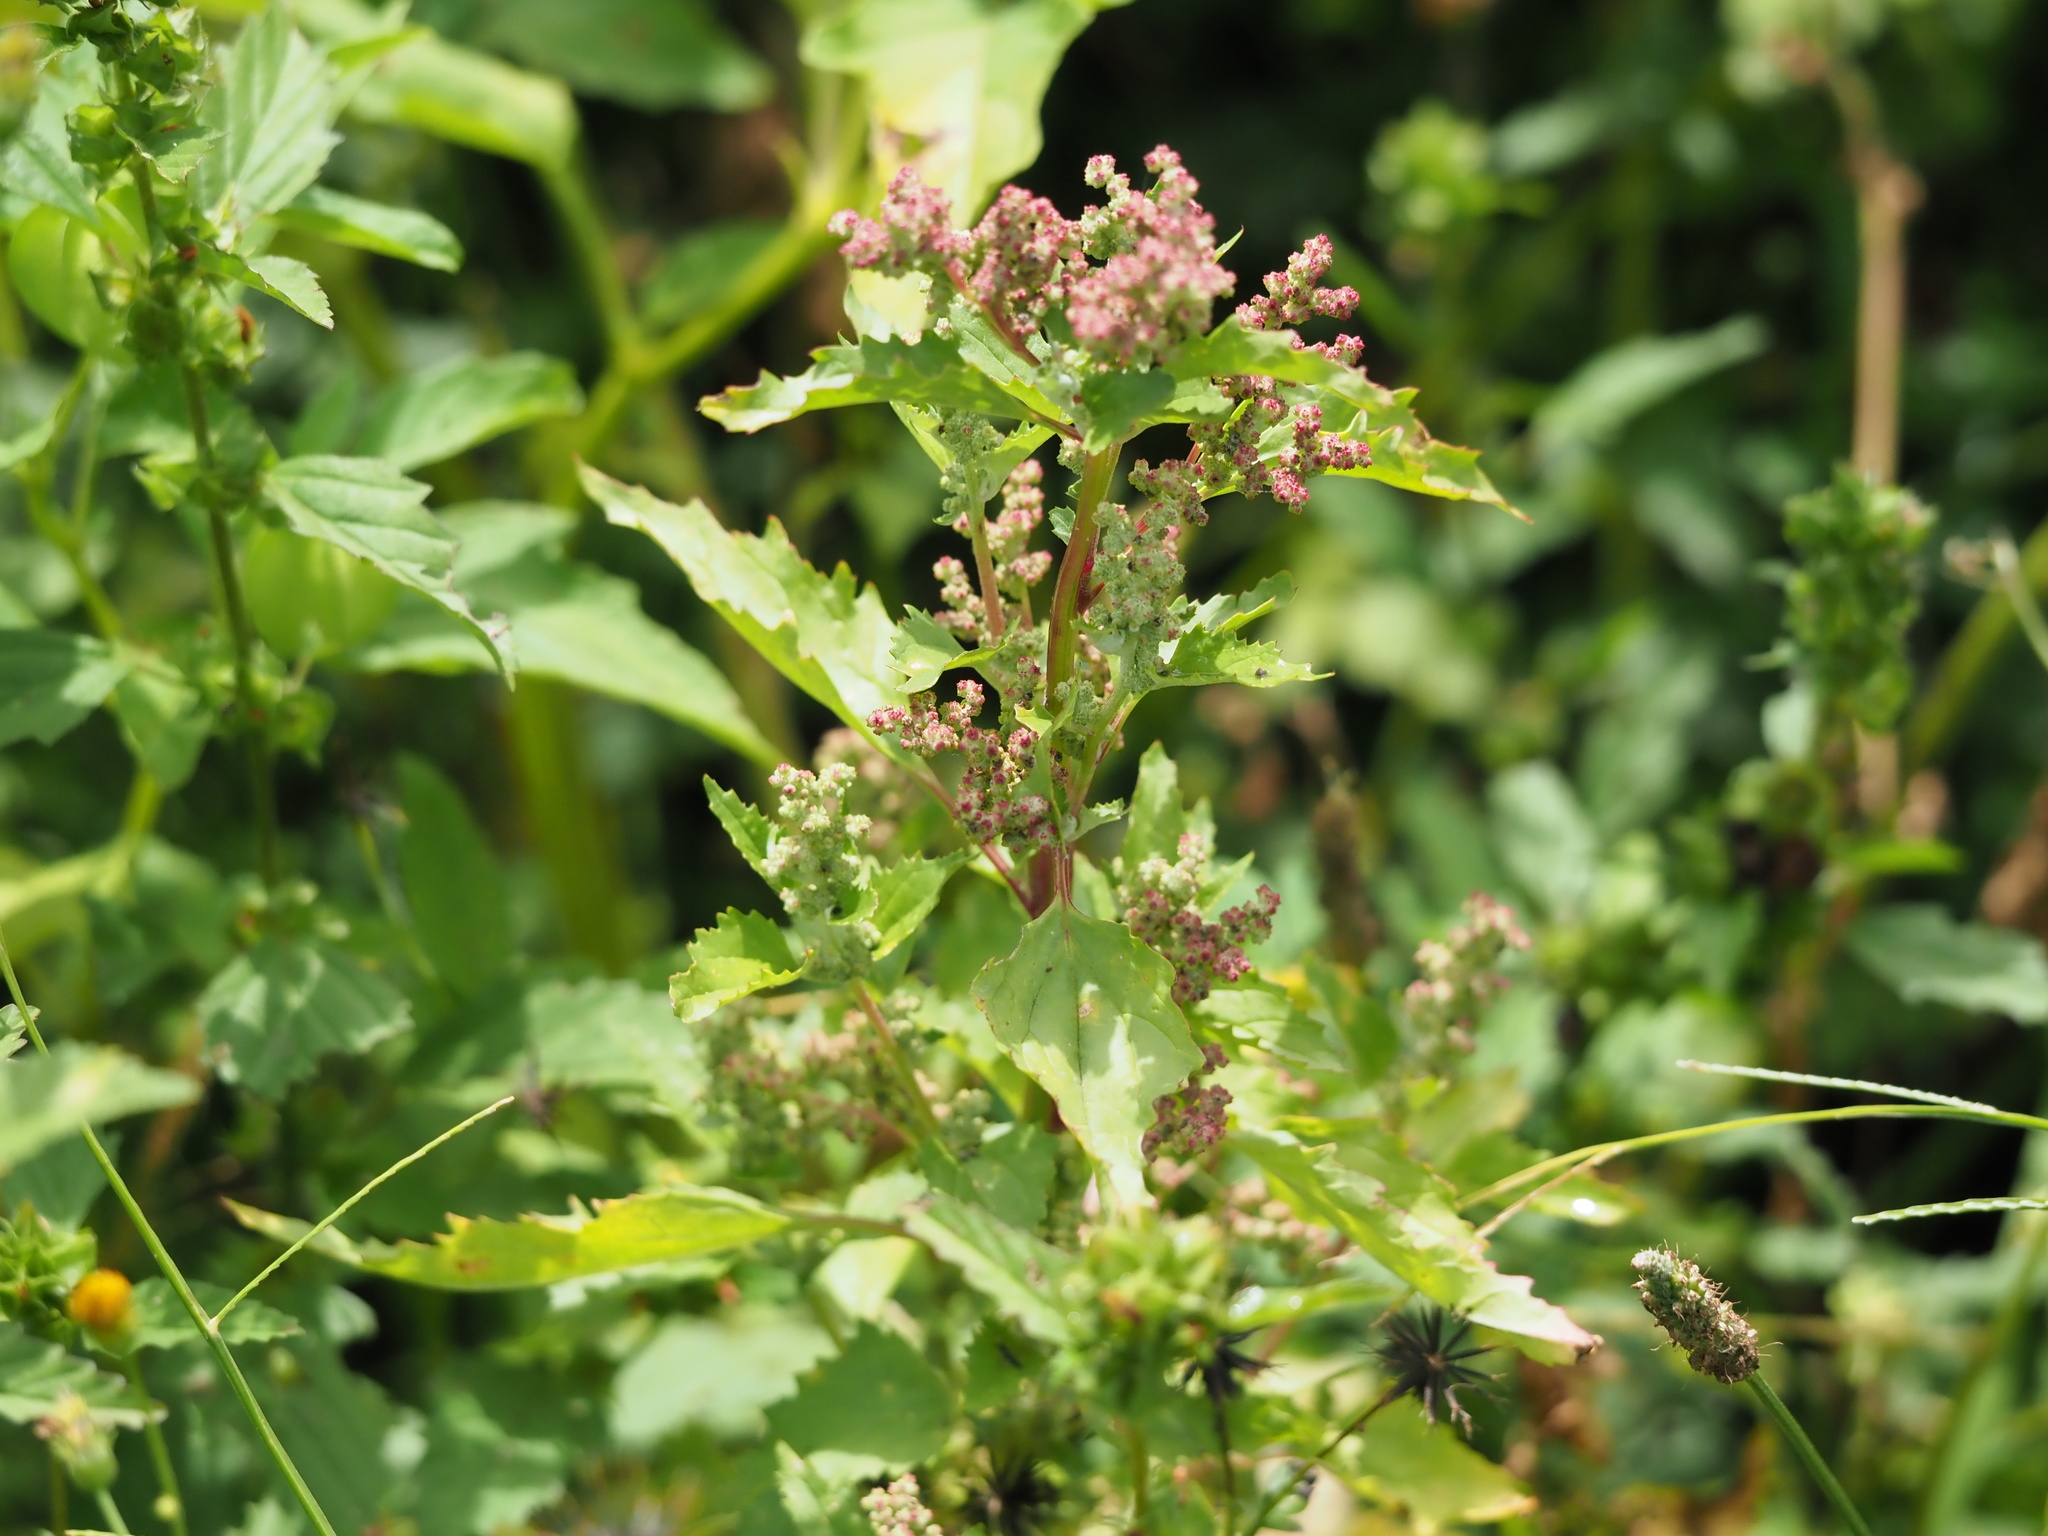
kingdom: Plantae
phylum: Tracheophyta
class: Magnoliopsida
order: Caryophyllales
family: Amaranthaceae
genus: Chenopodiastrum
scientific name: Chenopodiastrum murale
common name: Sowbane
